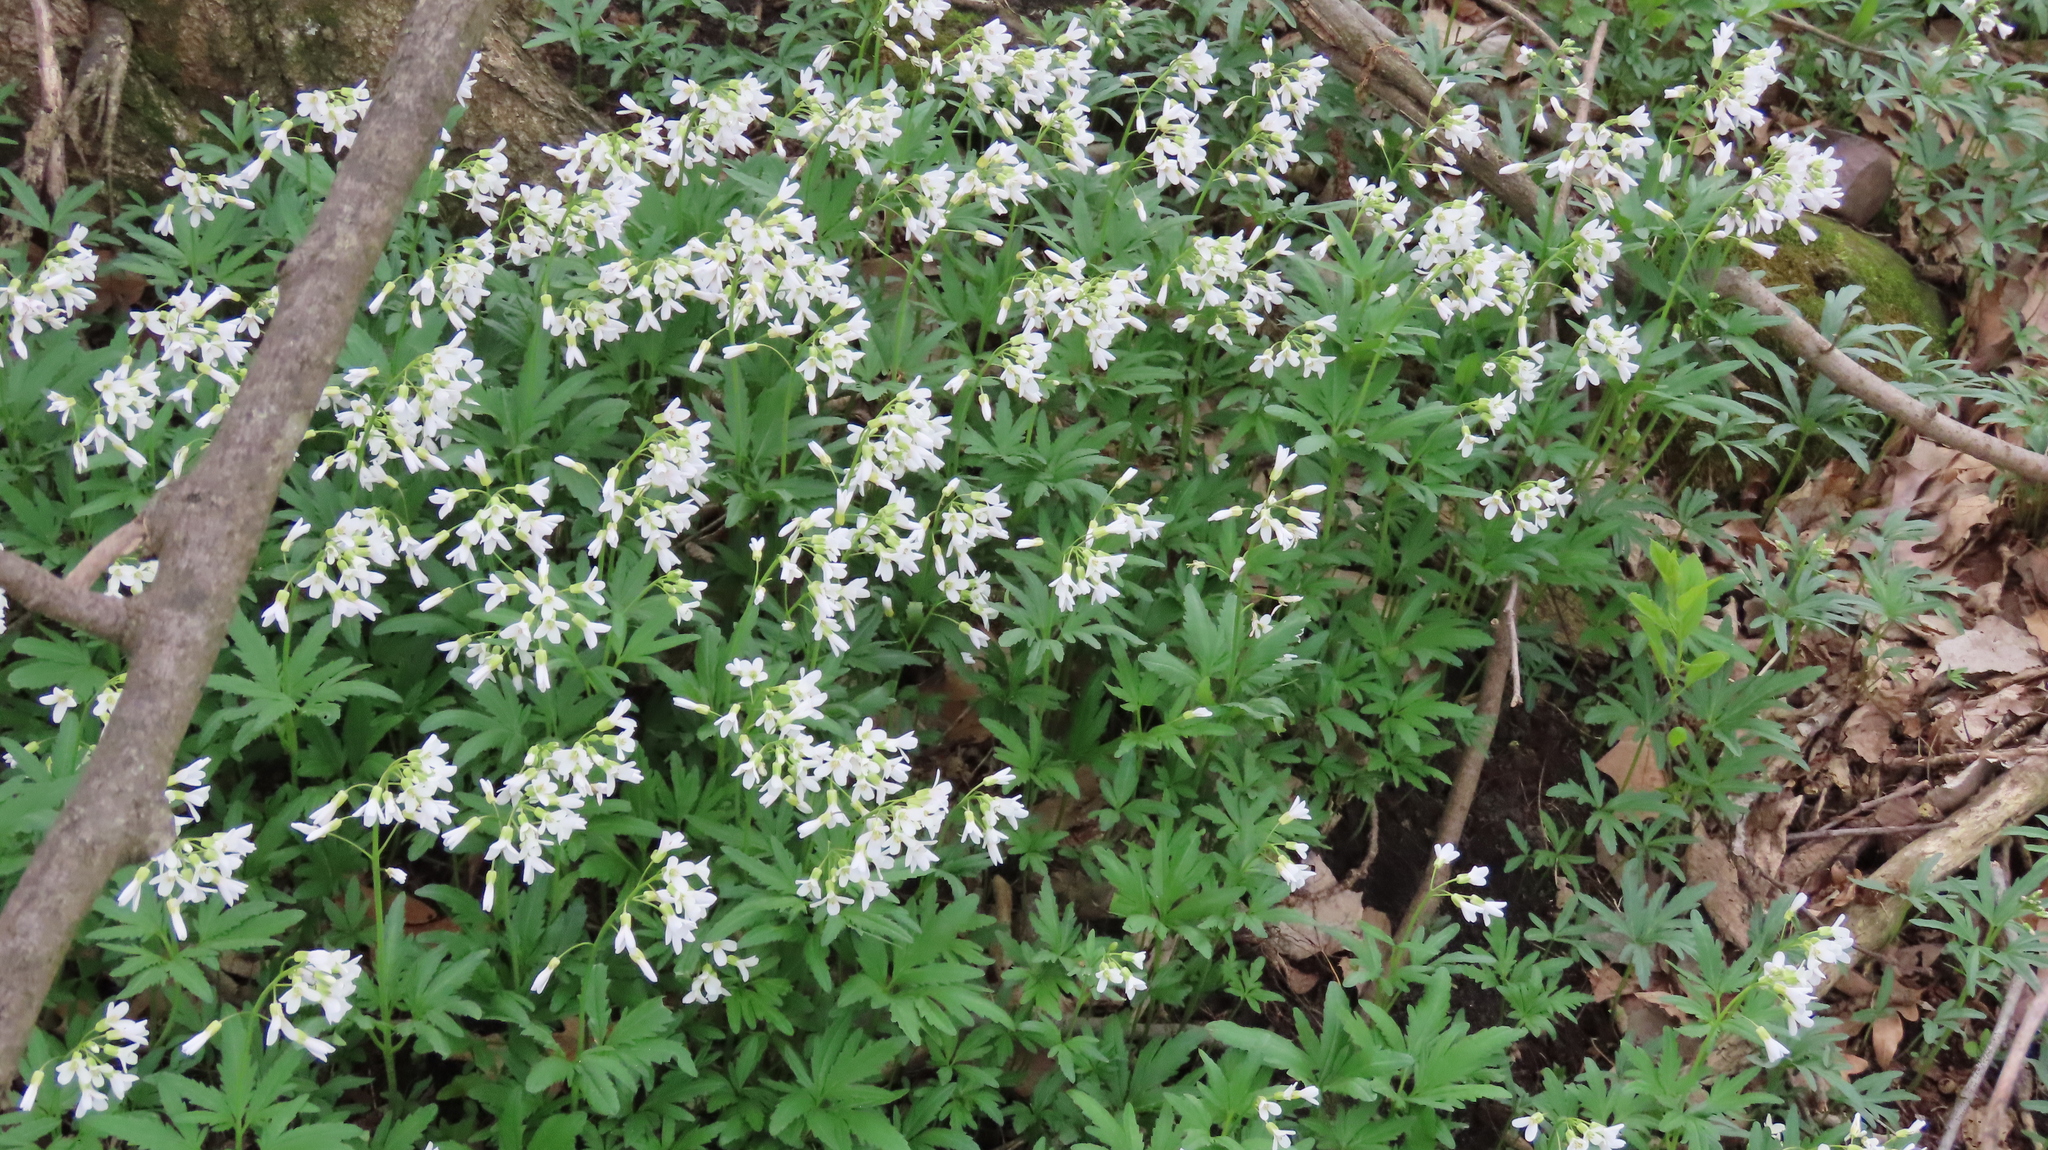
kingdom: Plantae
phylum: Tracheophyta
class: Magnoliopsida
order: Brassicales
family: Brassicaceae
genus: Cardamine
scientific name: Cardamine concatenata
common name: Cut-leaf toothcup
